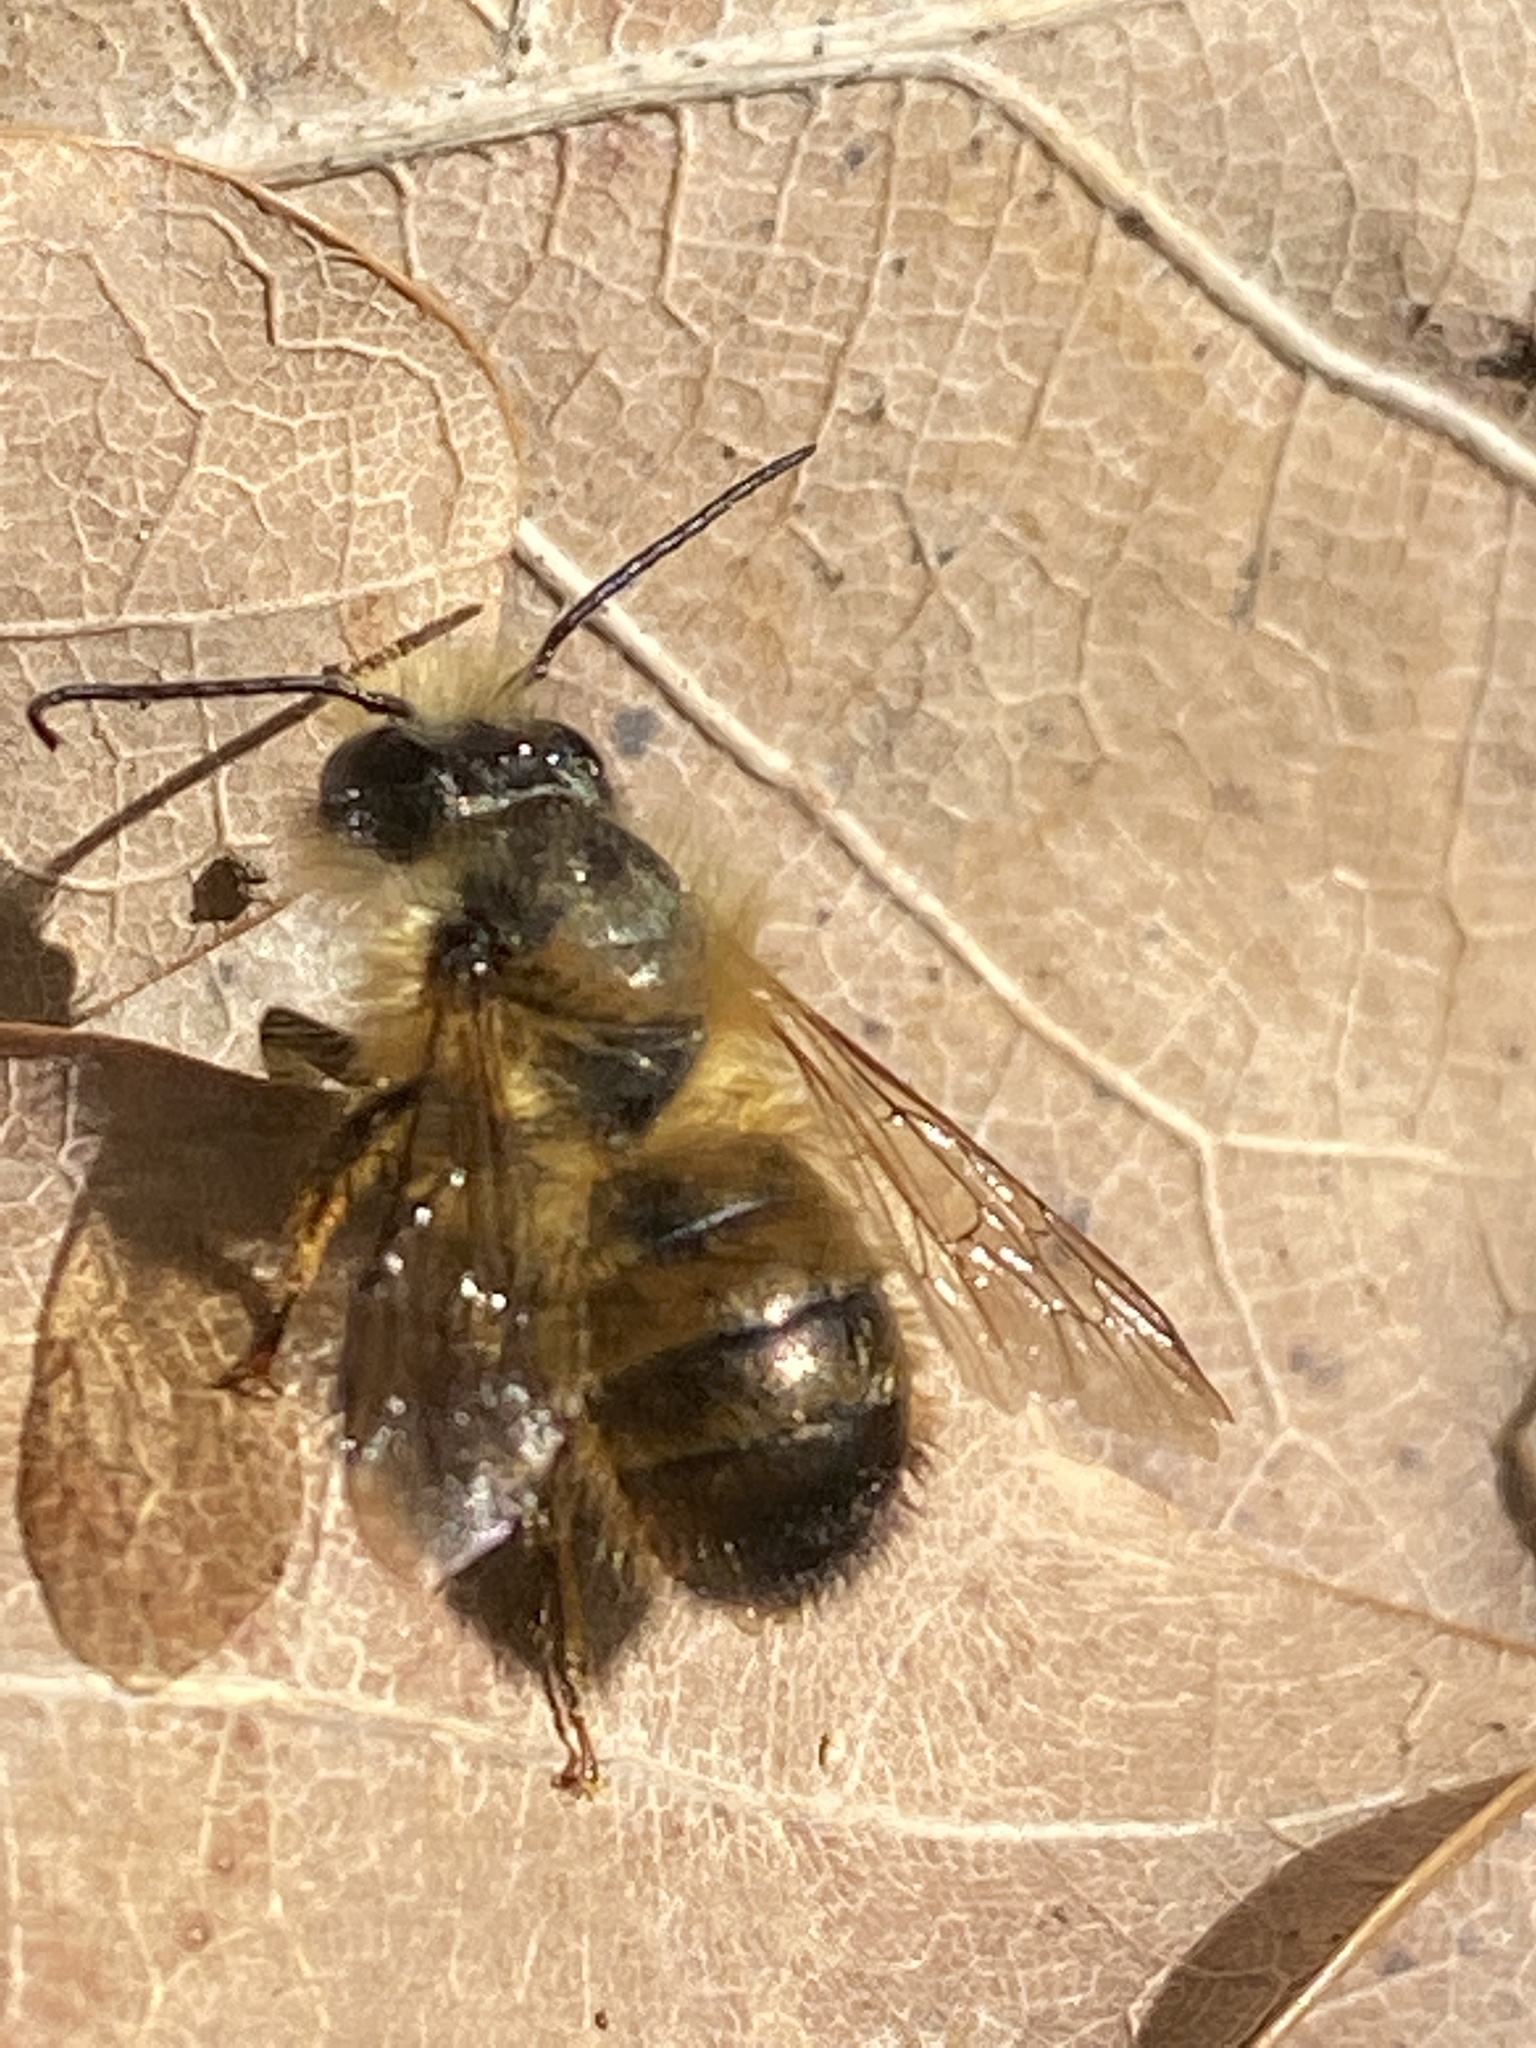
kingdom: Animalia
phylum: Arthropoda
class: Insecta
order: Hymenoptera
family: Megachilidae
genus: Osmia
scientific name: Osmia bicornis
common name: Red mason bee
